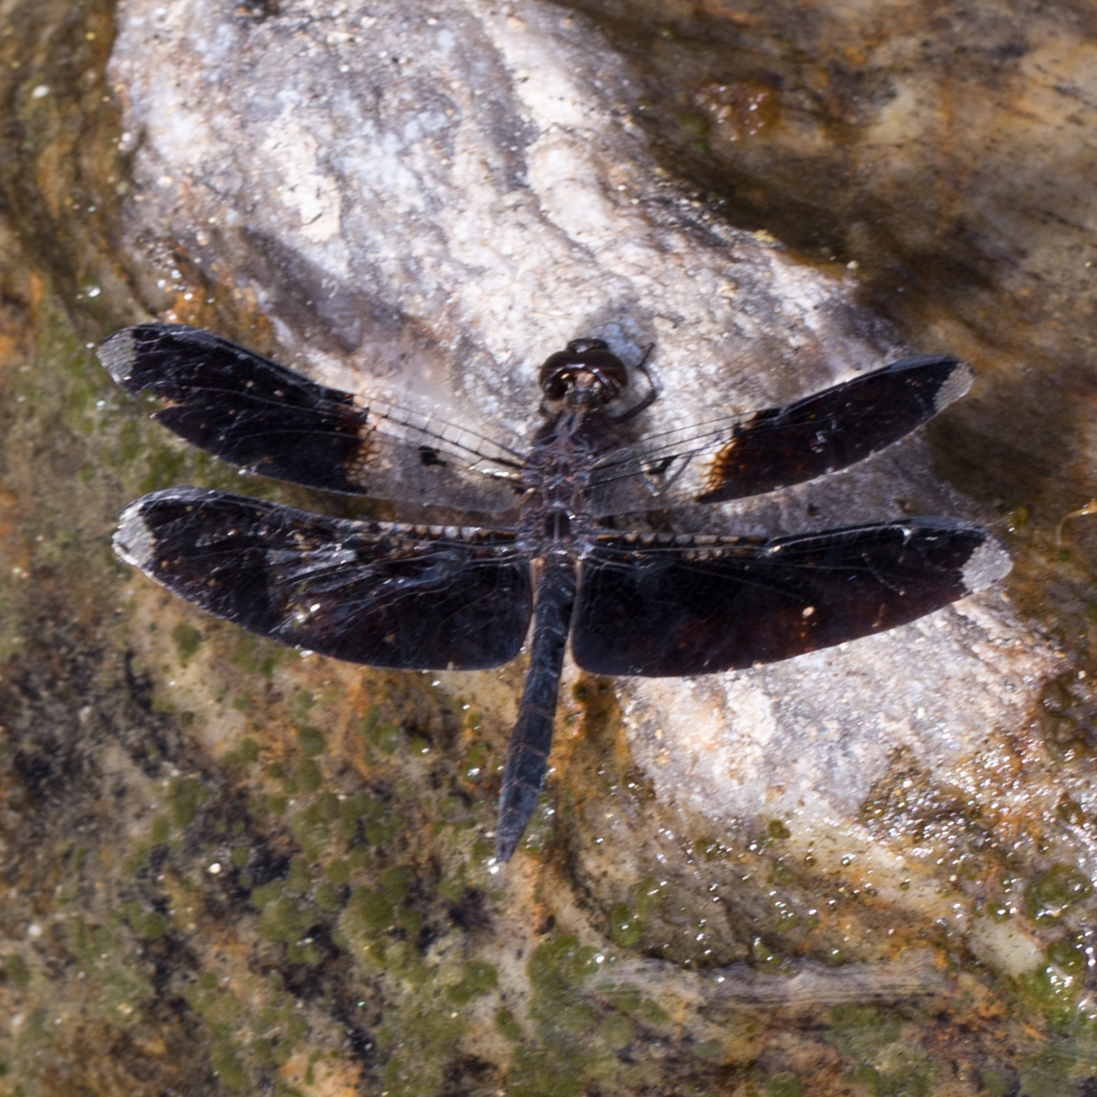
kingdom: Animalia
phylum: Arthropoda
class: Insecta
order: Odonata
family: Libellulidae
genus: Pseudoleon
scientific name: Pseudoleon superbus
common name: Filigree skimmer
